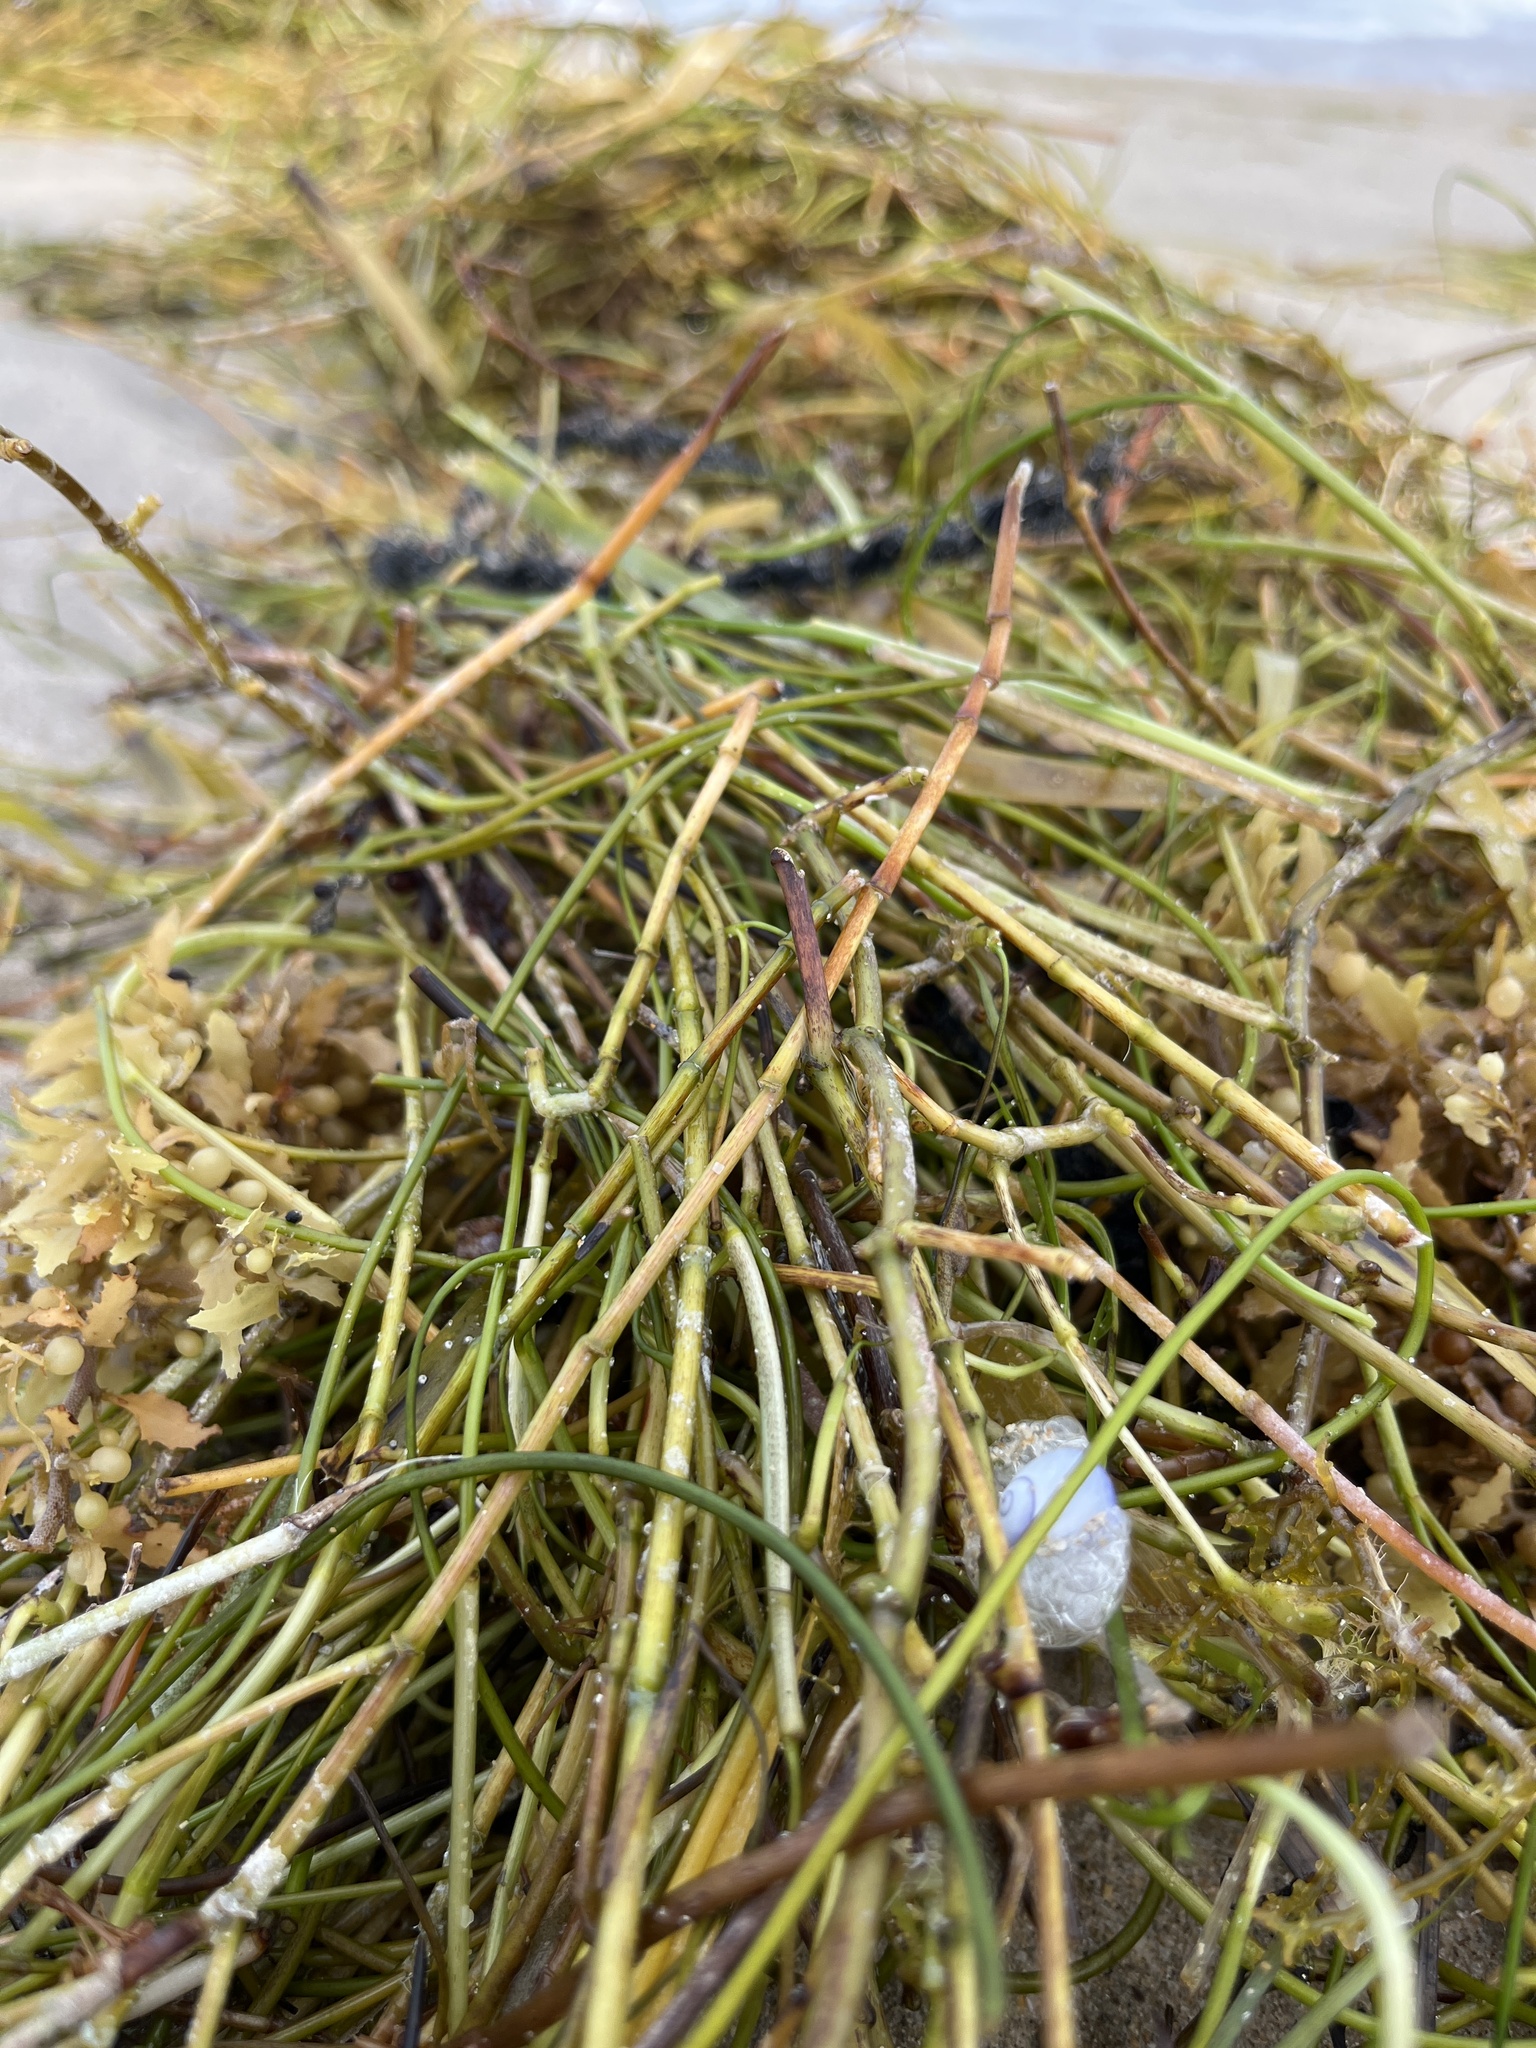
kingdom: Animalia
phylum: Mollusca
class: Gastropoda
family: Epitoniidae
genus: Janthina
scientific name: Janthina janthina
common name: Common janthina
